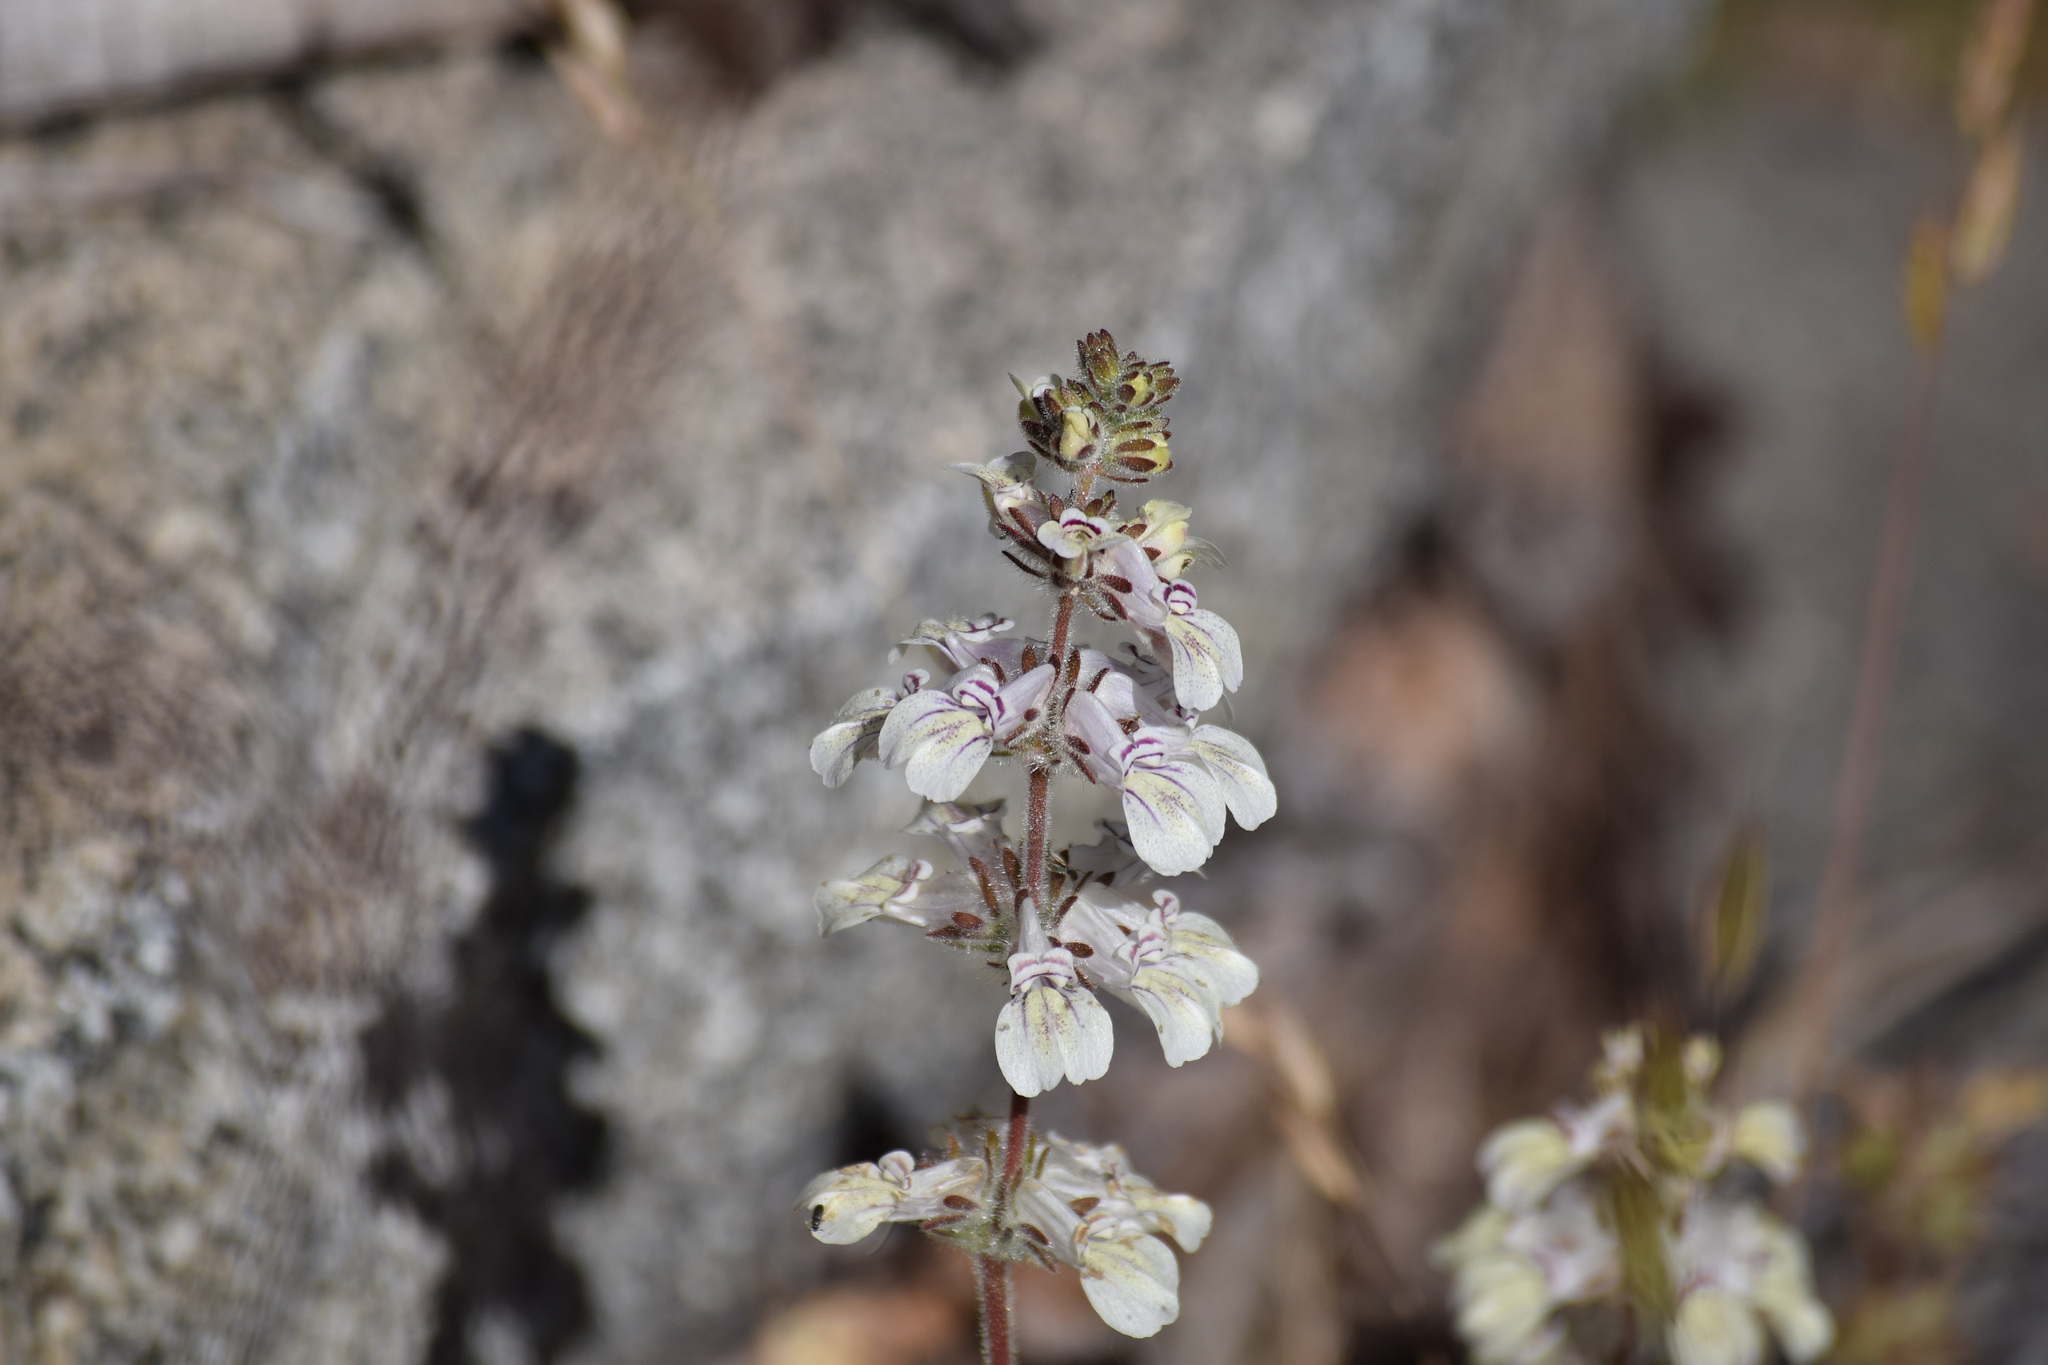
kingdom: Plantae
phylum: Tracheophyta
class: Magnoliopsida
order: Lamiales
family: Plantaginaceae
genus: Collinsia
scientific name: Collinsia tinctoria
